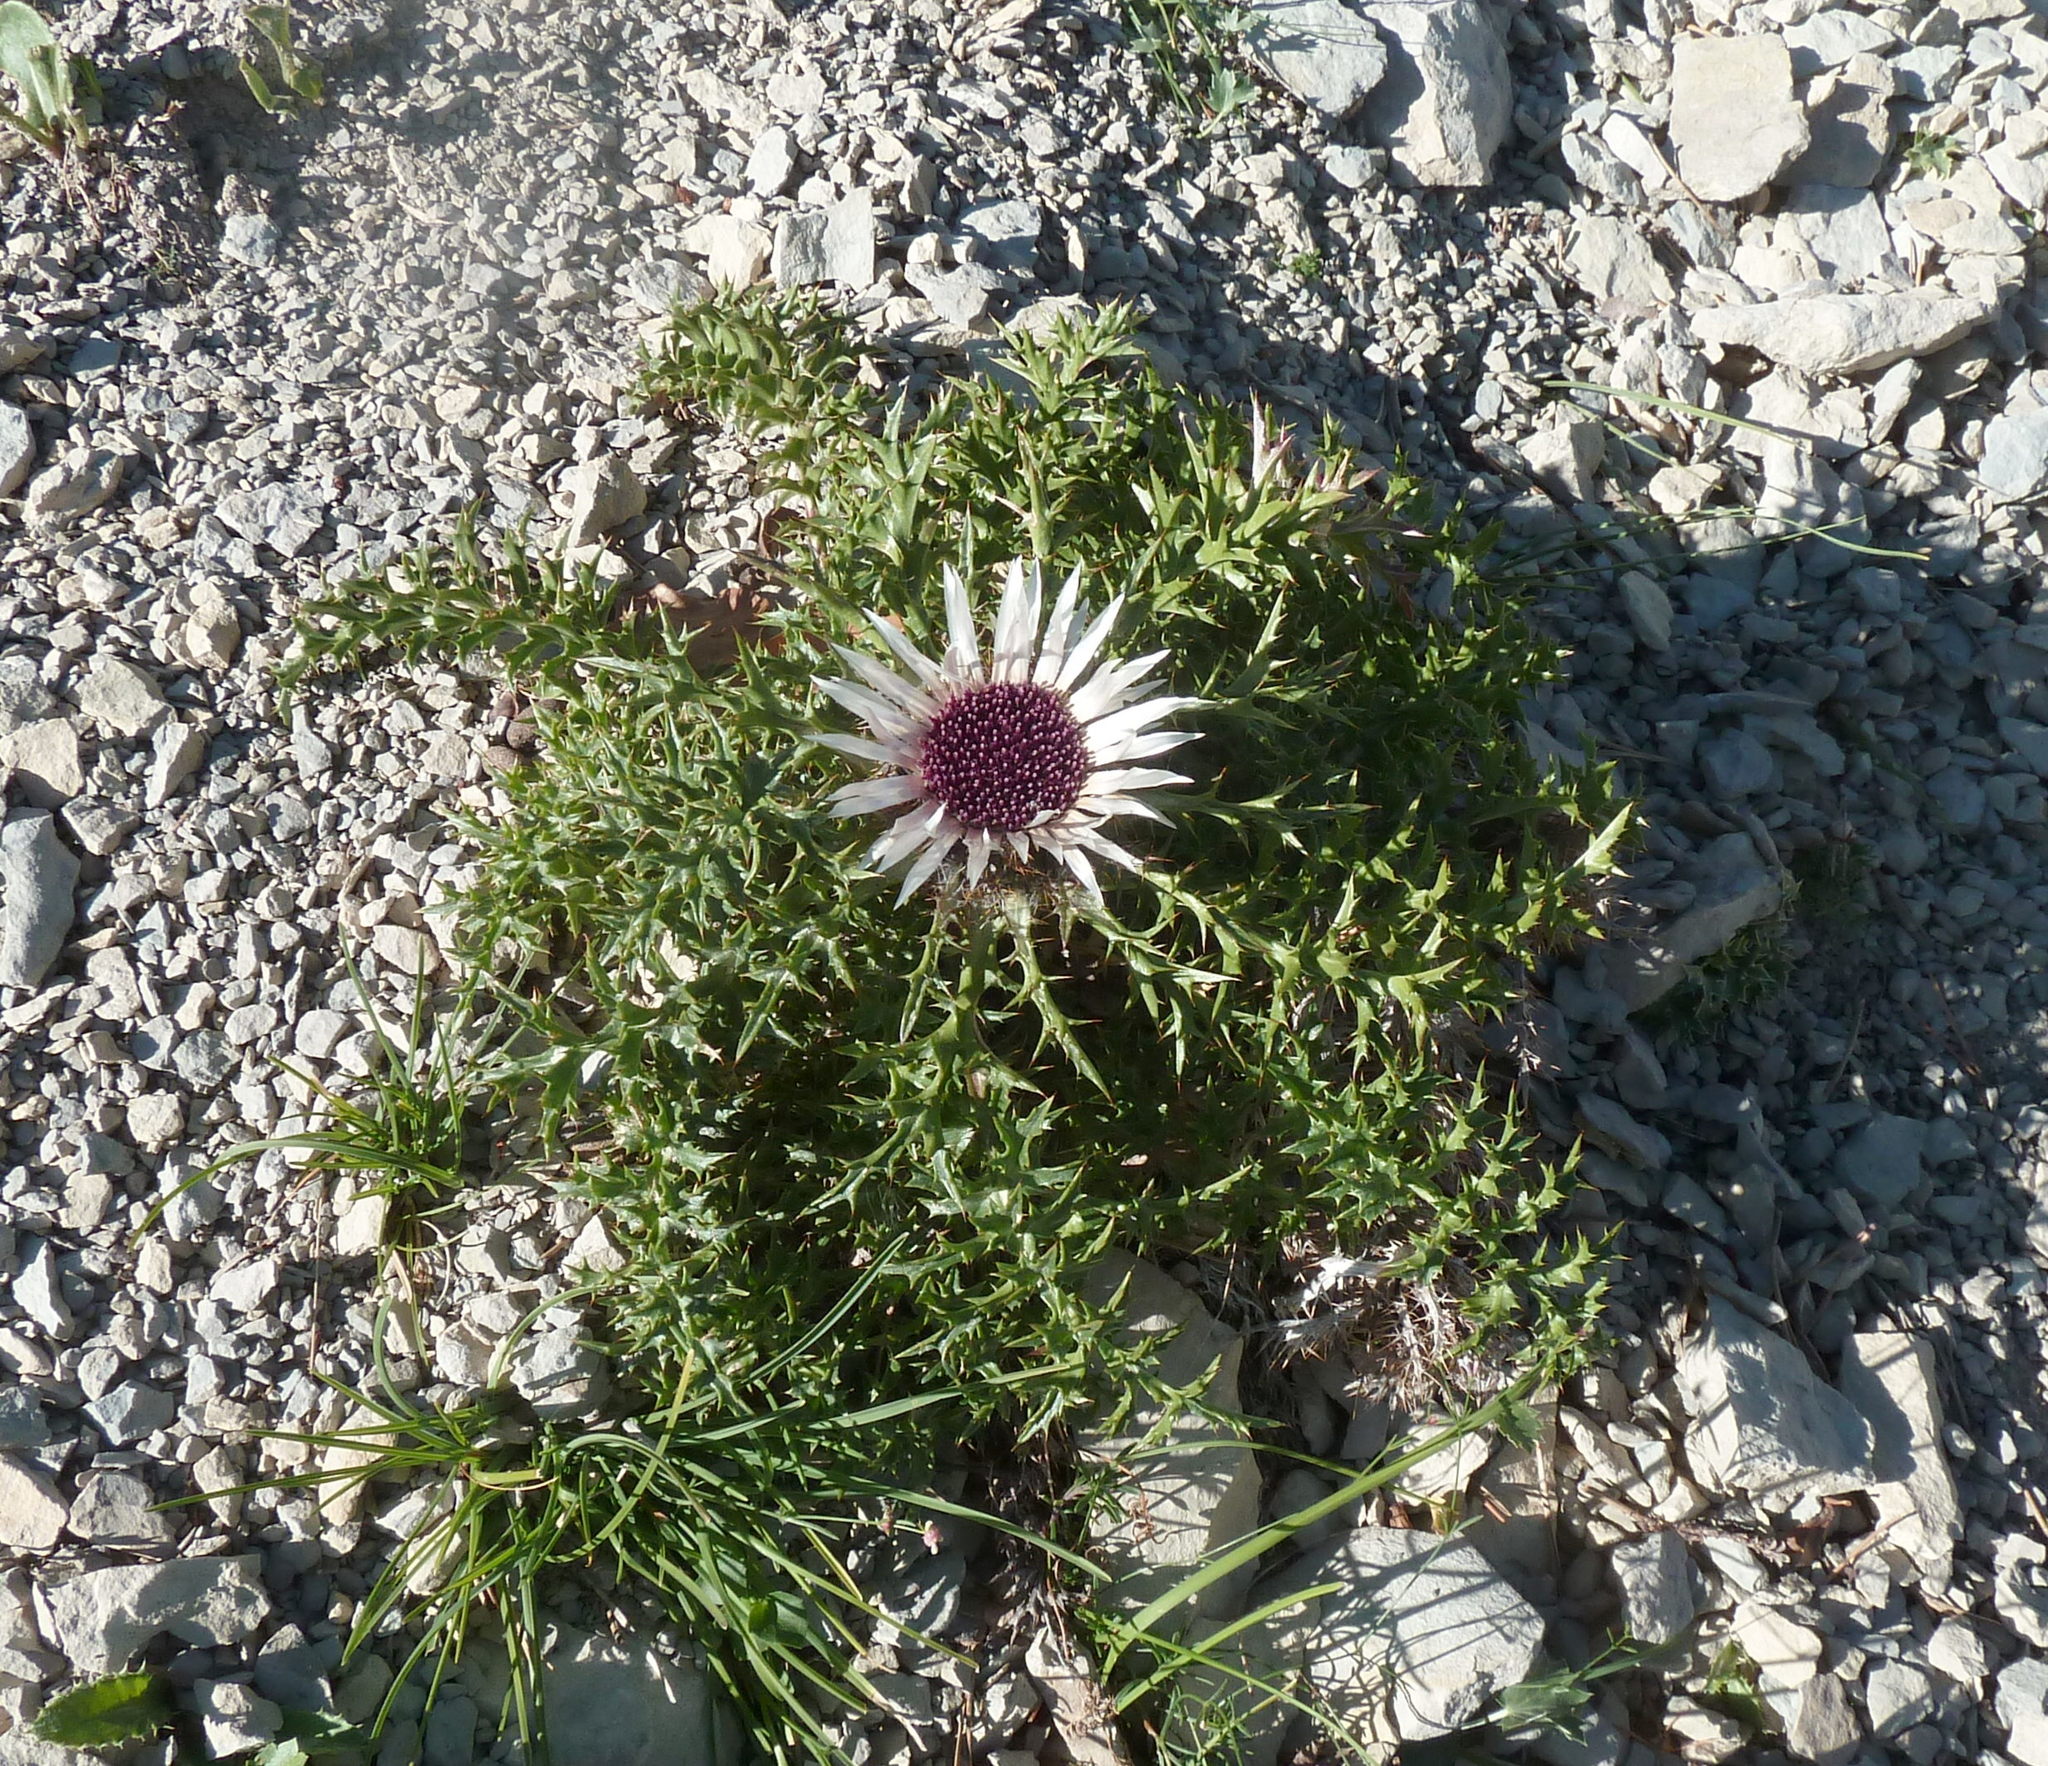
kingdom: Plantae
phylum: Tracheophyta
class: Magnoliopsida
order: Asterales
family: Asteraceae
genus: Carlina
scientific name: Carlina acaulis
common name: Stemless carline thistle
